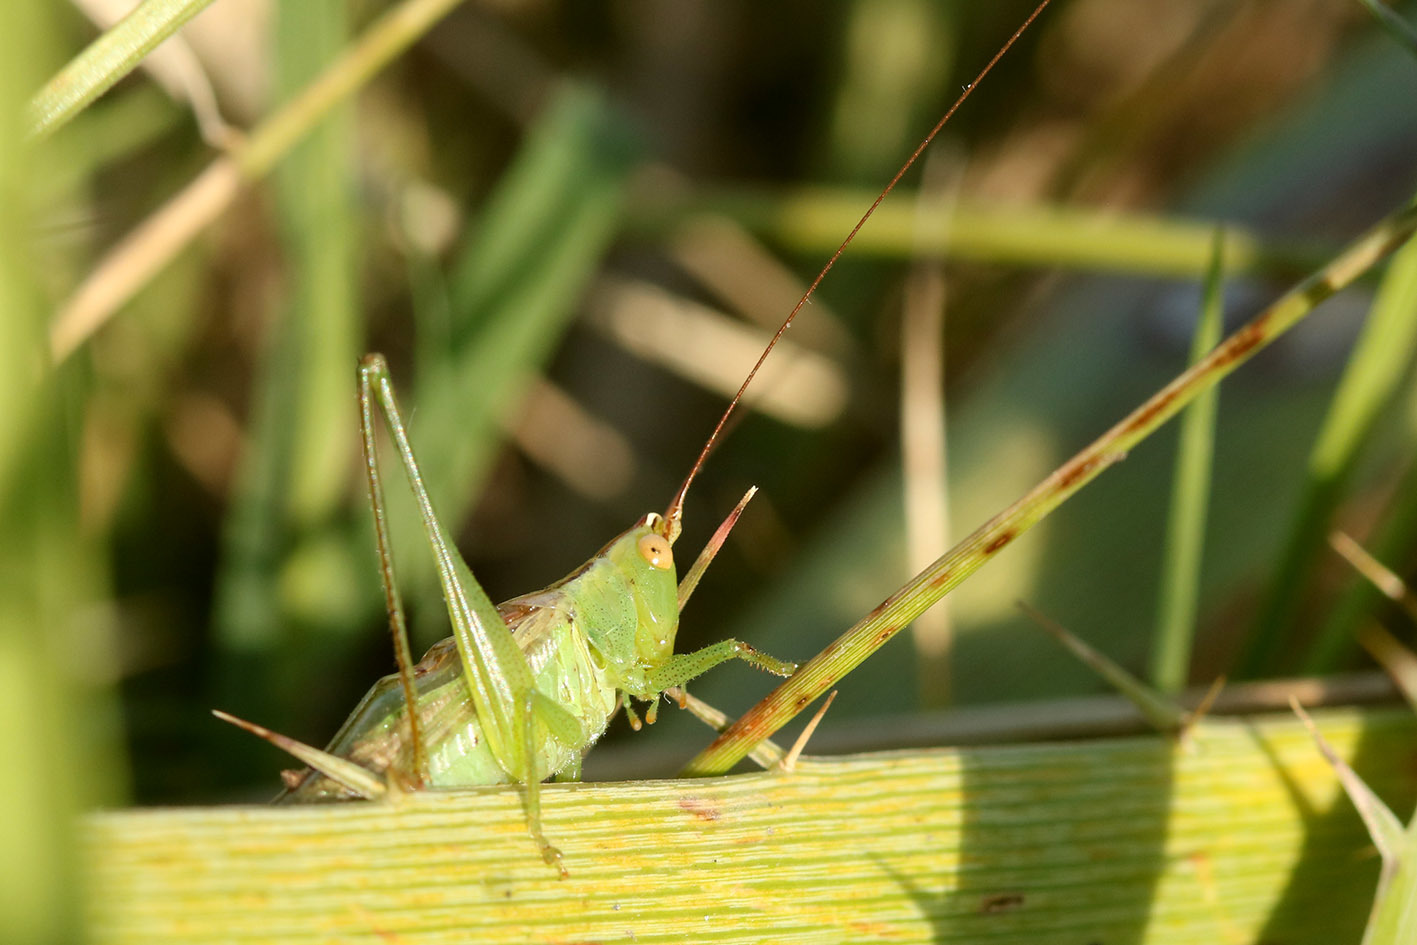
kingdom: Animalia
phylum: Arthropoda
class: Insecta
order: Orthoptera
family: Tettigoniidae
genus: Conocephalus
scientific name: Conocephalus longipes
